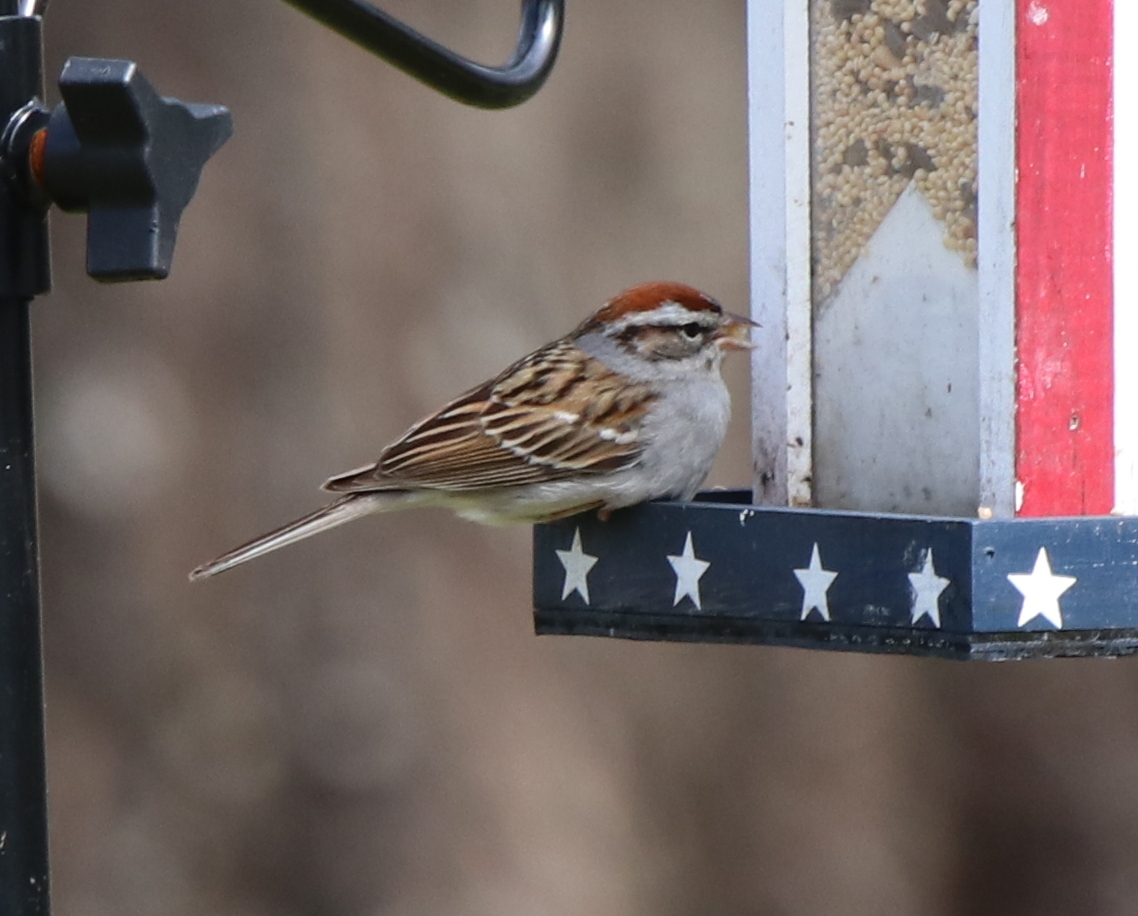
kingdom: Animalia
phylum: Chordata
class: Aves
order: Passeriformes
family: Passerellidae
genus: Spizella
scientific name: Spizella passerina
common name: Chipping sparrow
